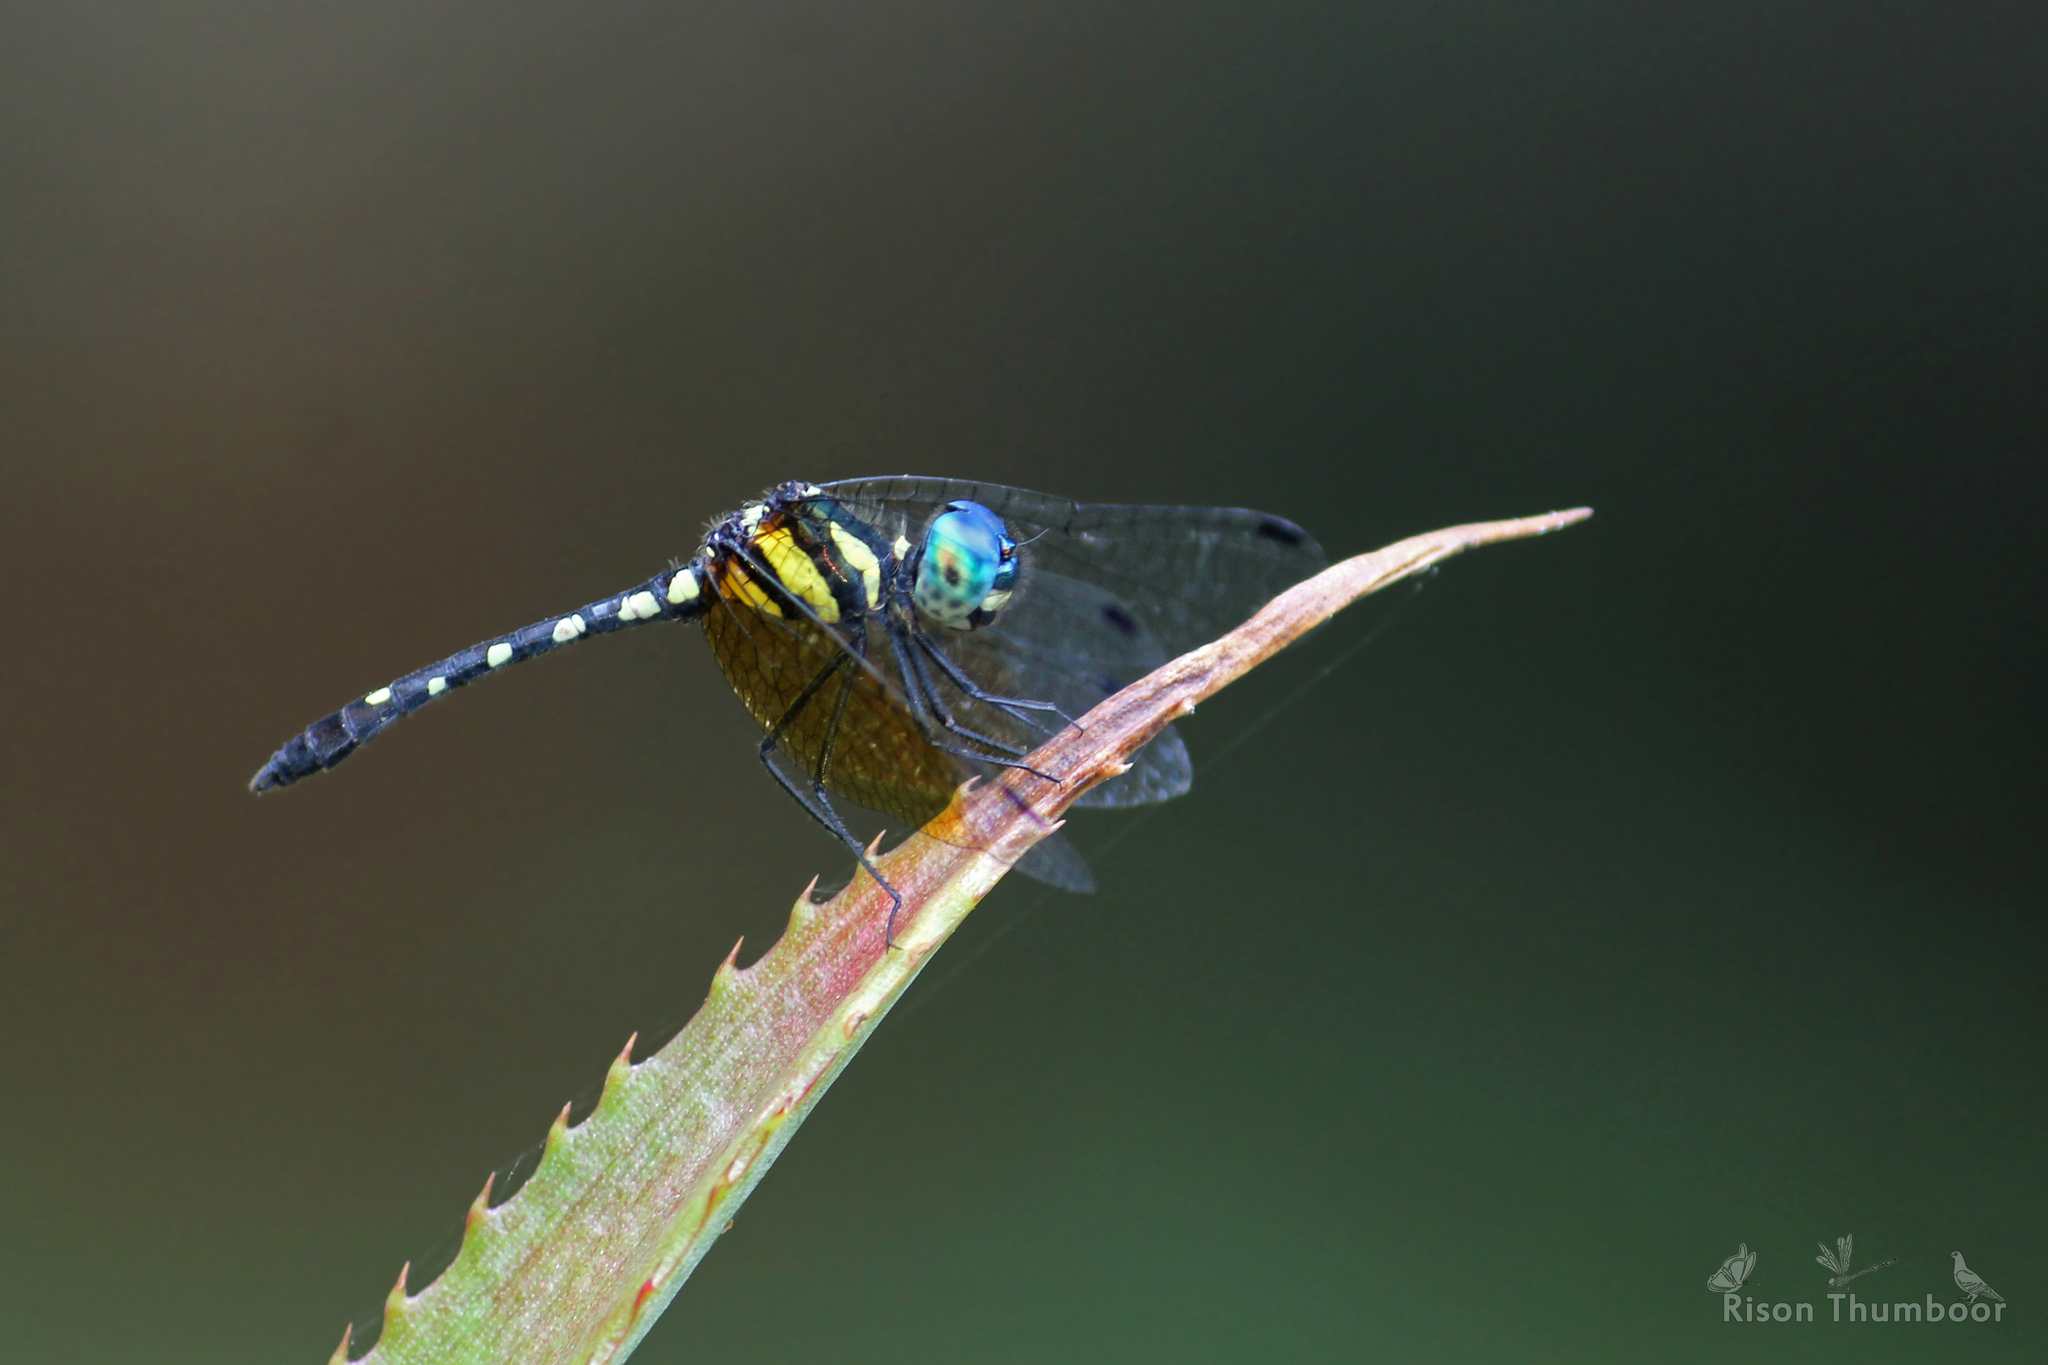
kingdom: Animalia
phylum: Arthropoda
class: Insecta
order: Odonata
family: Libellulidae
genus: Tetrathemis
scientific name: Tetrathemis platyptera
